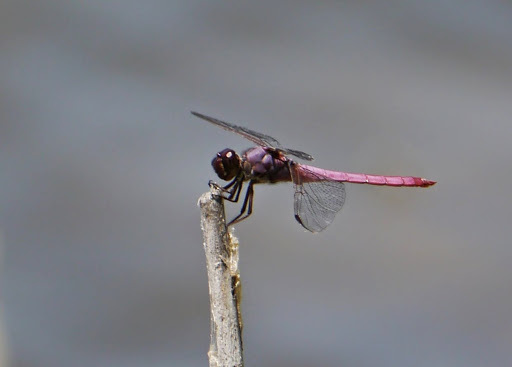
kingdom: Animalia
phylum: Arthropoda
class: Insecta
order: Odonata
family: Libellulidae
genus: Orthemis
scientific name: Orthemis ferruginea
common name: Roseate skimmer
